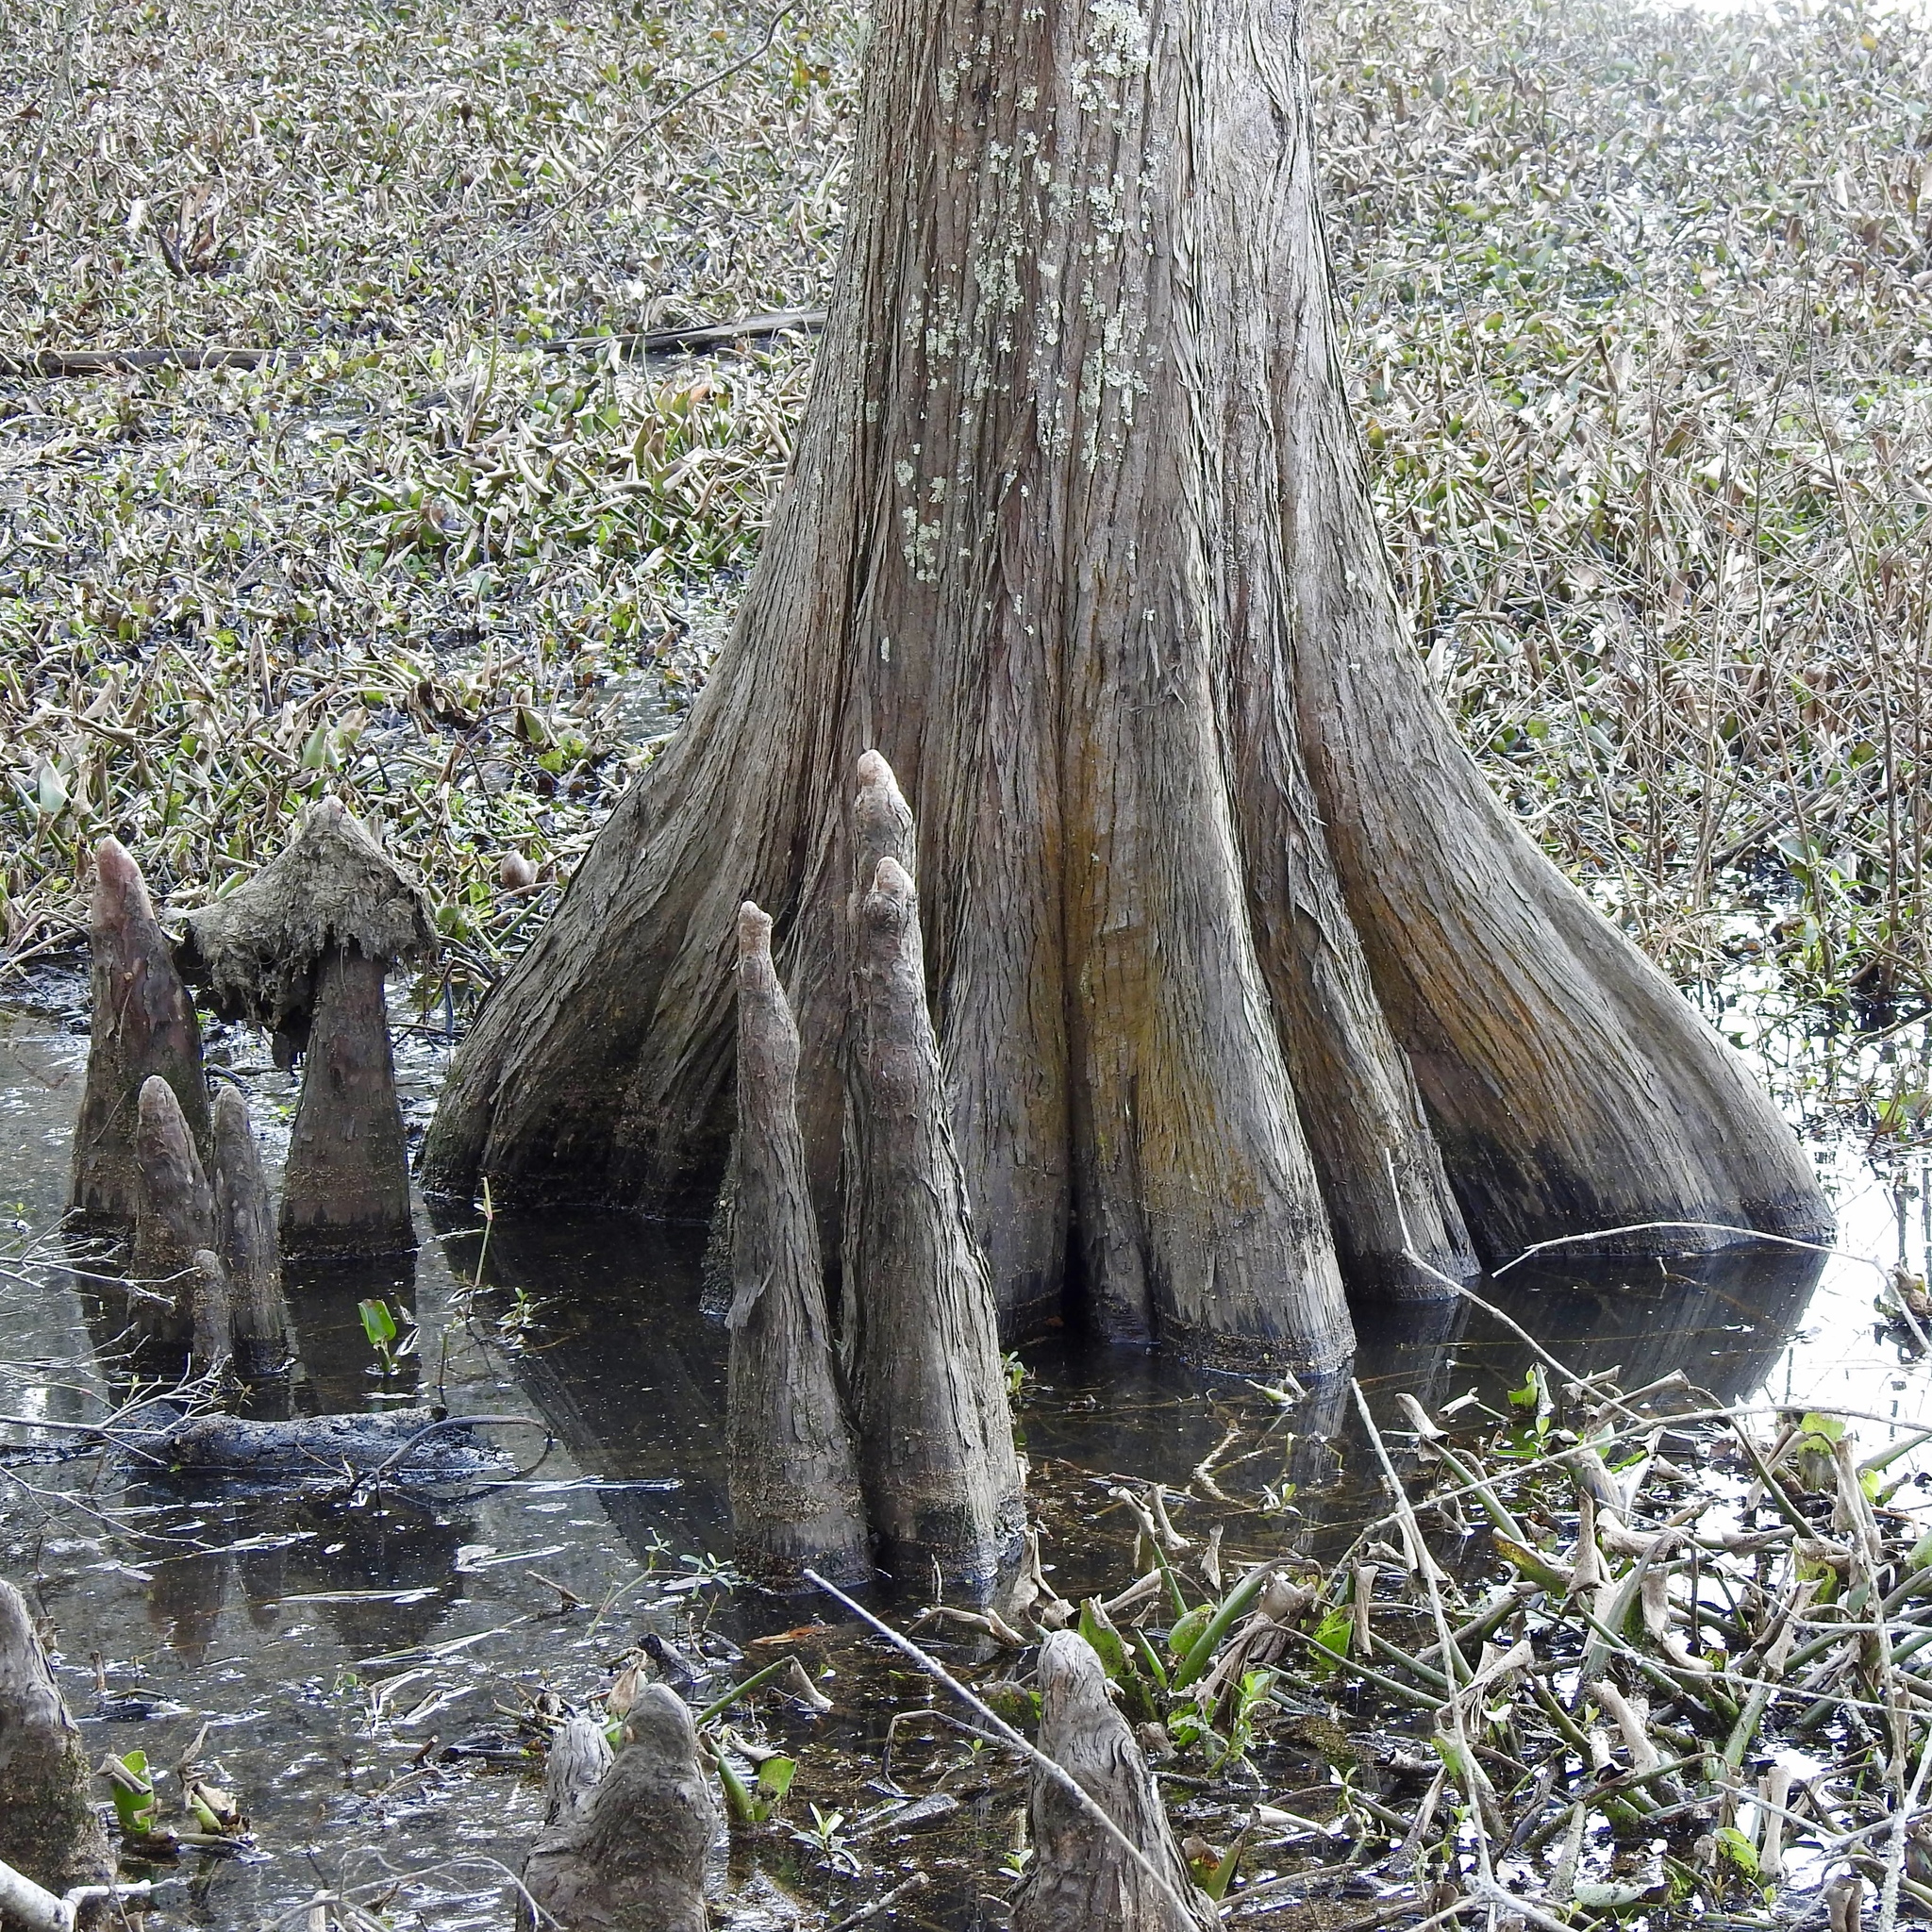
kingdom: Plantae
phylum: Tracheophyta
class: Pinopsida
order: Pinales
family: Cupressaceae
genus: Taxodium
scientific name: Taxodium distichum
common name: Bald cypress
